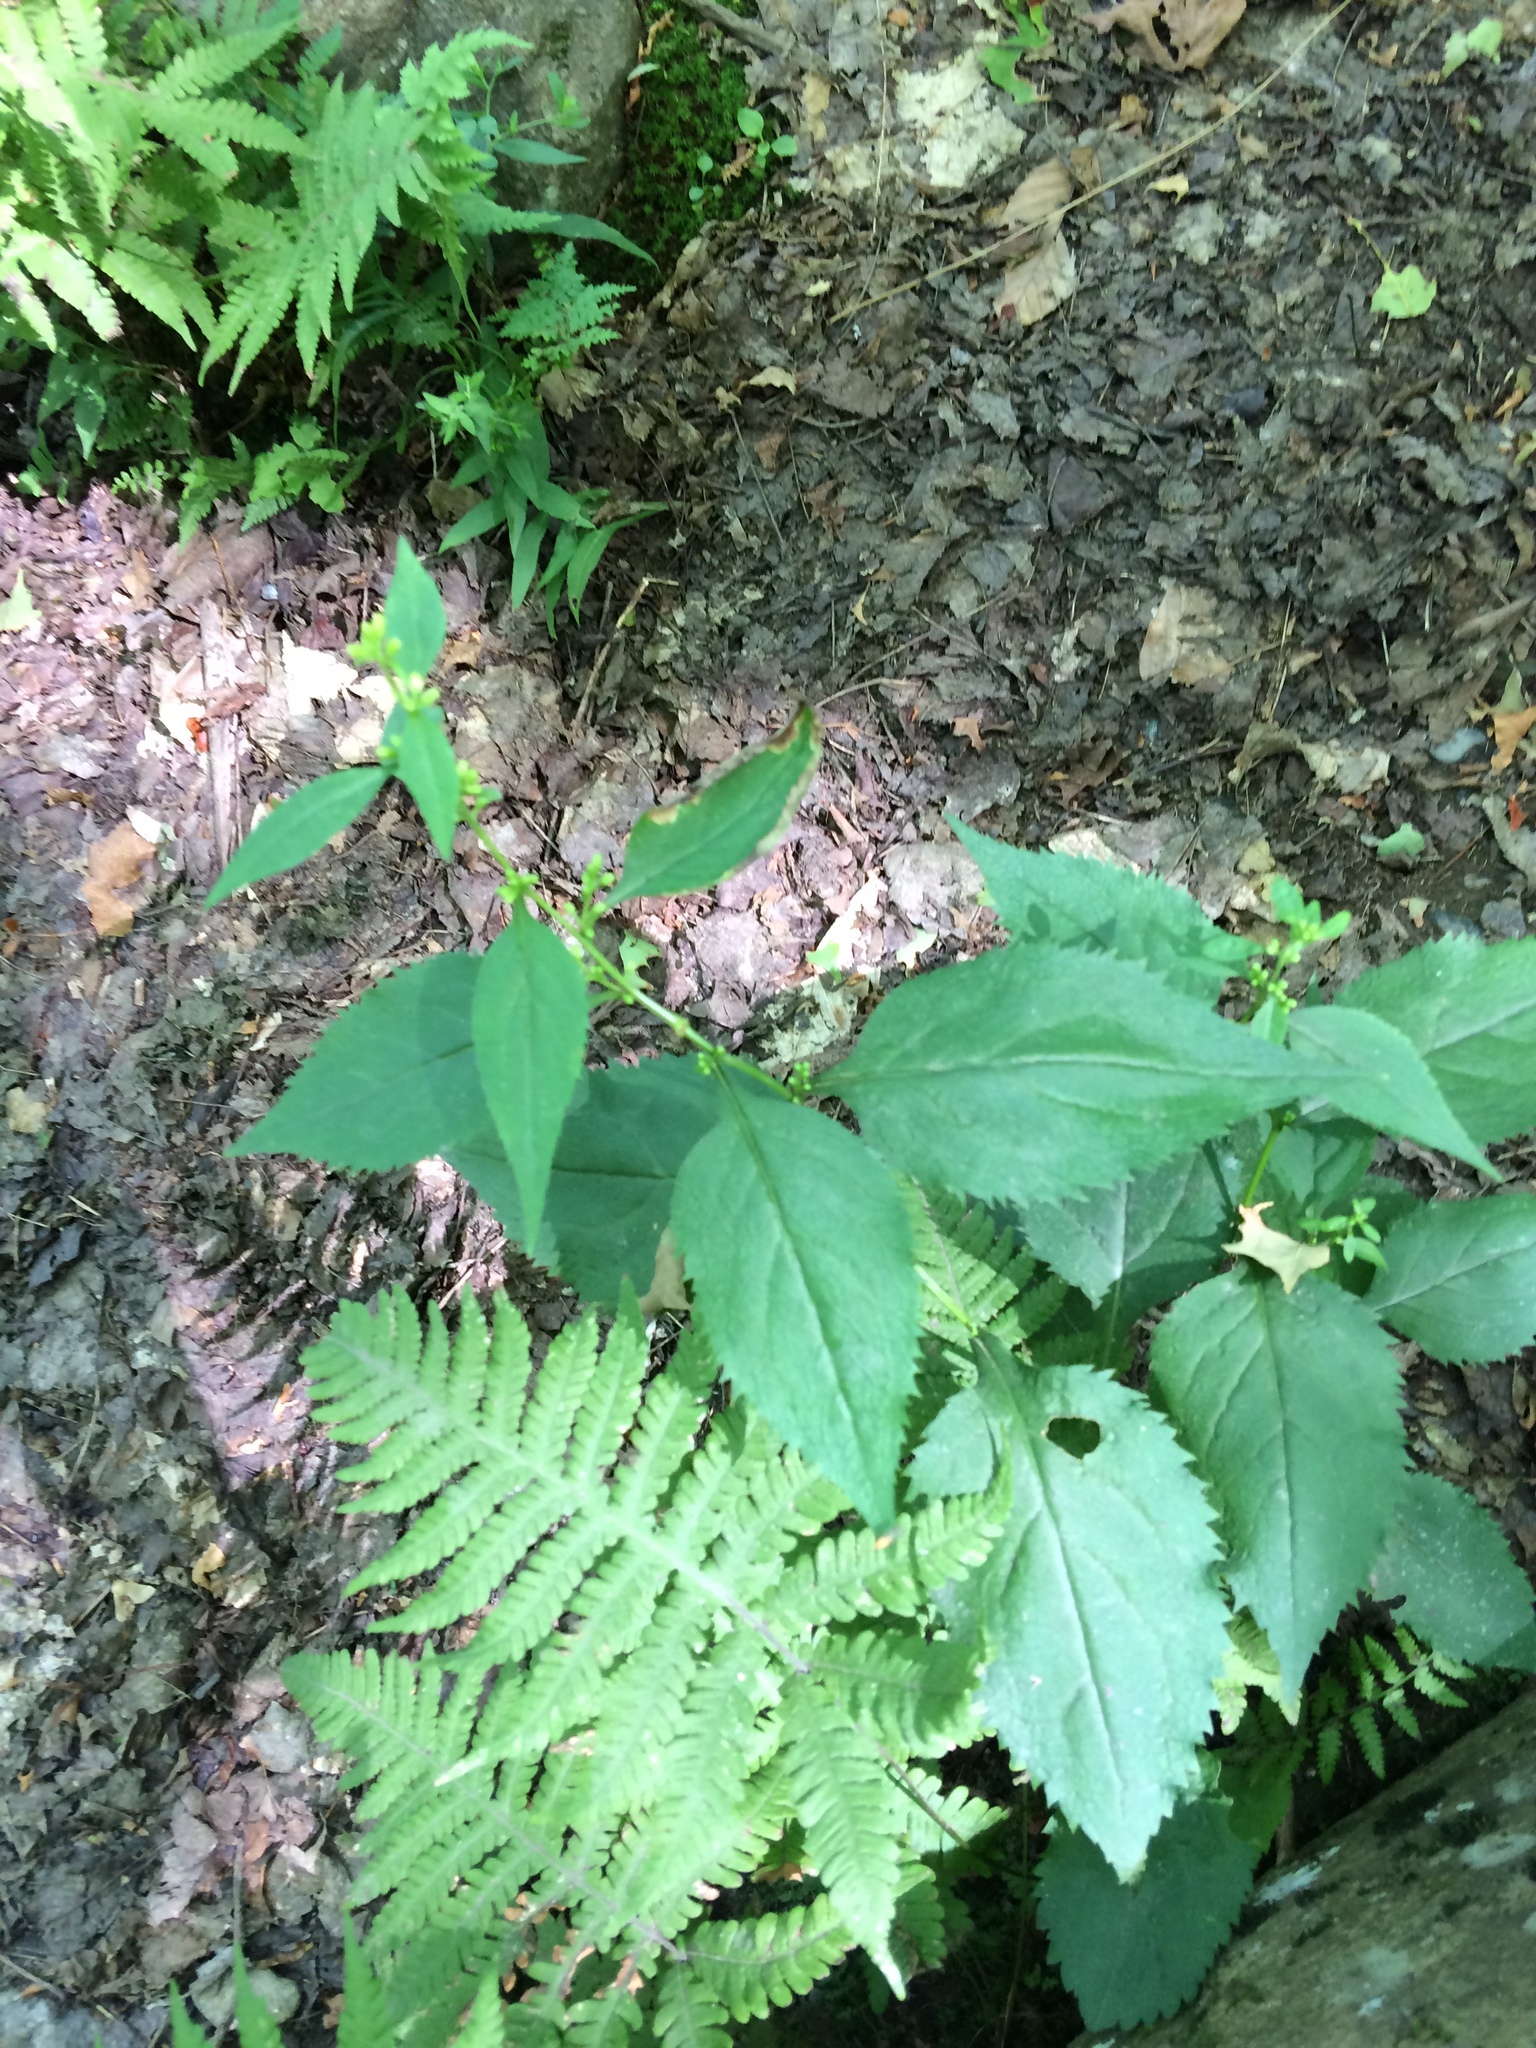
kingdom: Plantae
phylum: Tracheophyta
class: Magnoliopsida
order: Asterales
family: Asteraceae
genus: Solidago
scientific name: Solidago flexicaulis
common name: Zig-zag goldenrod
